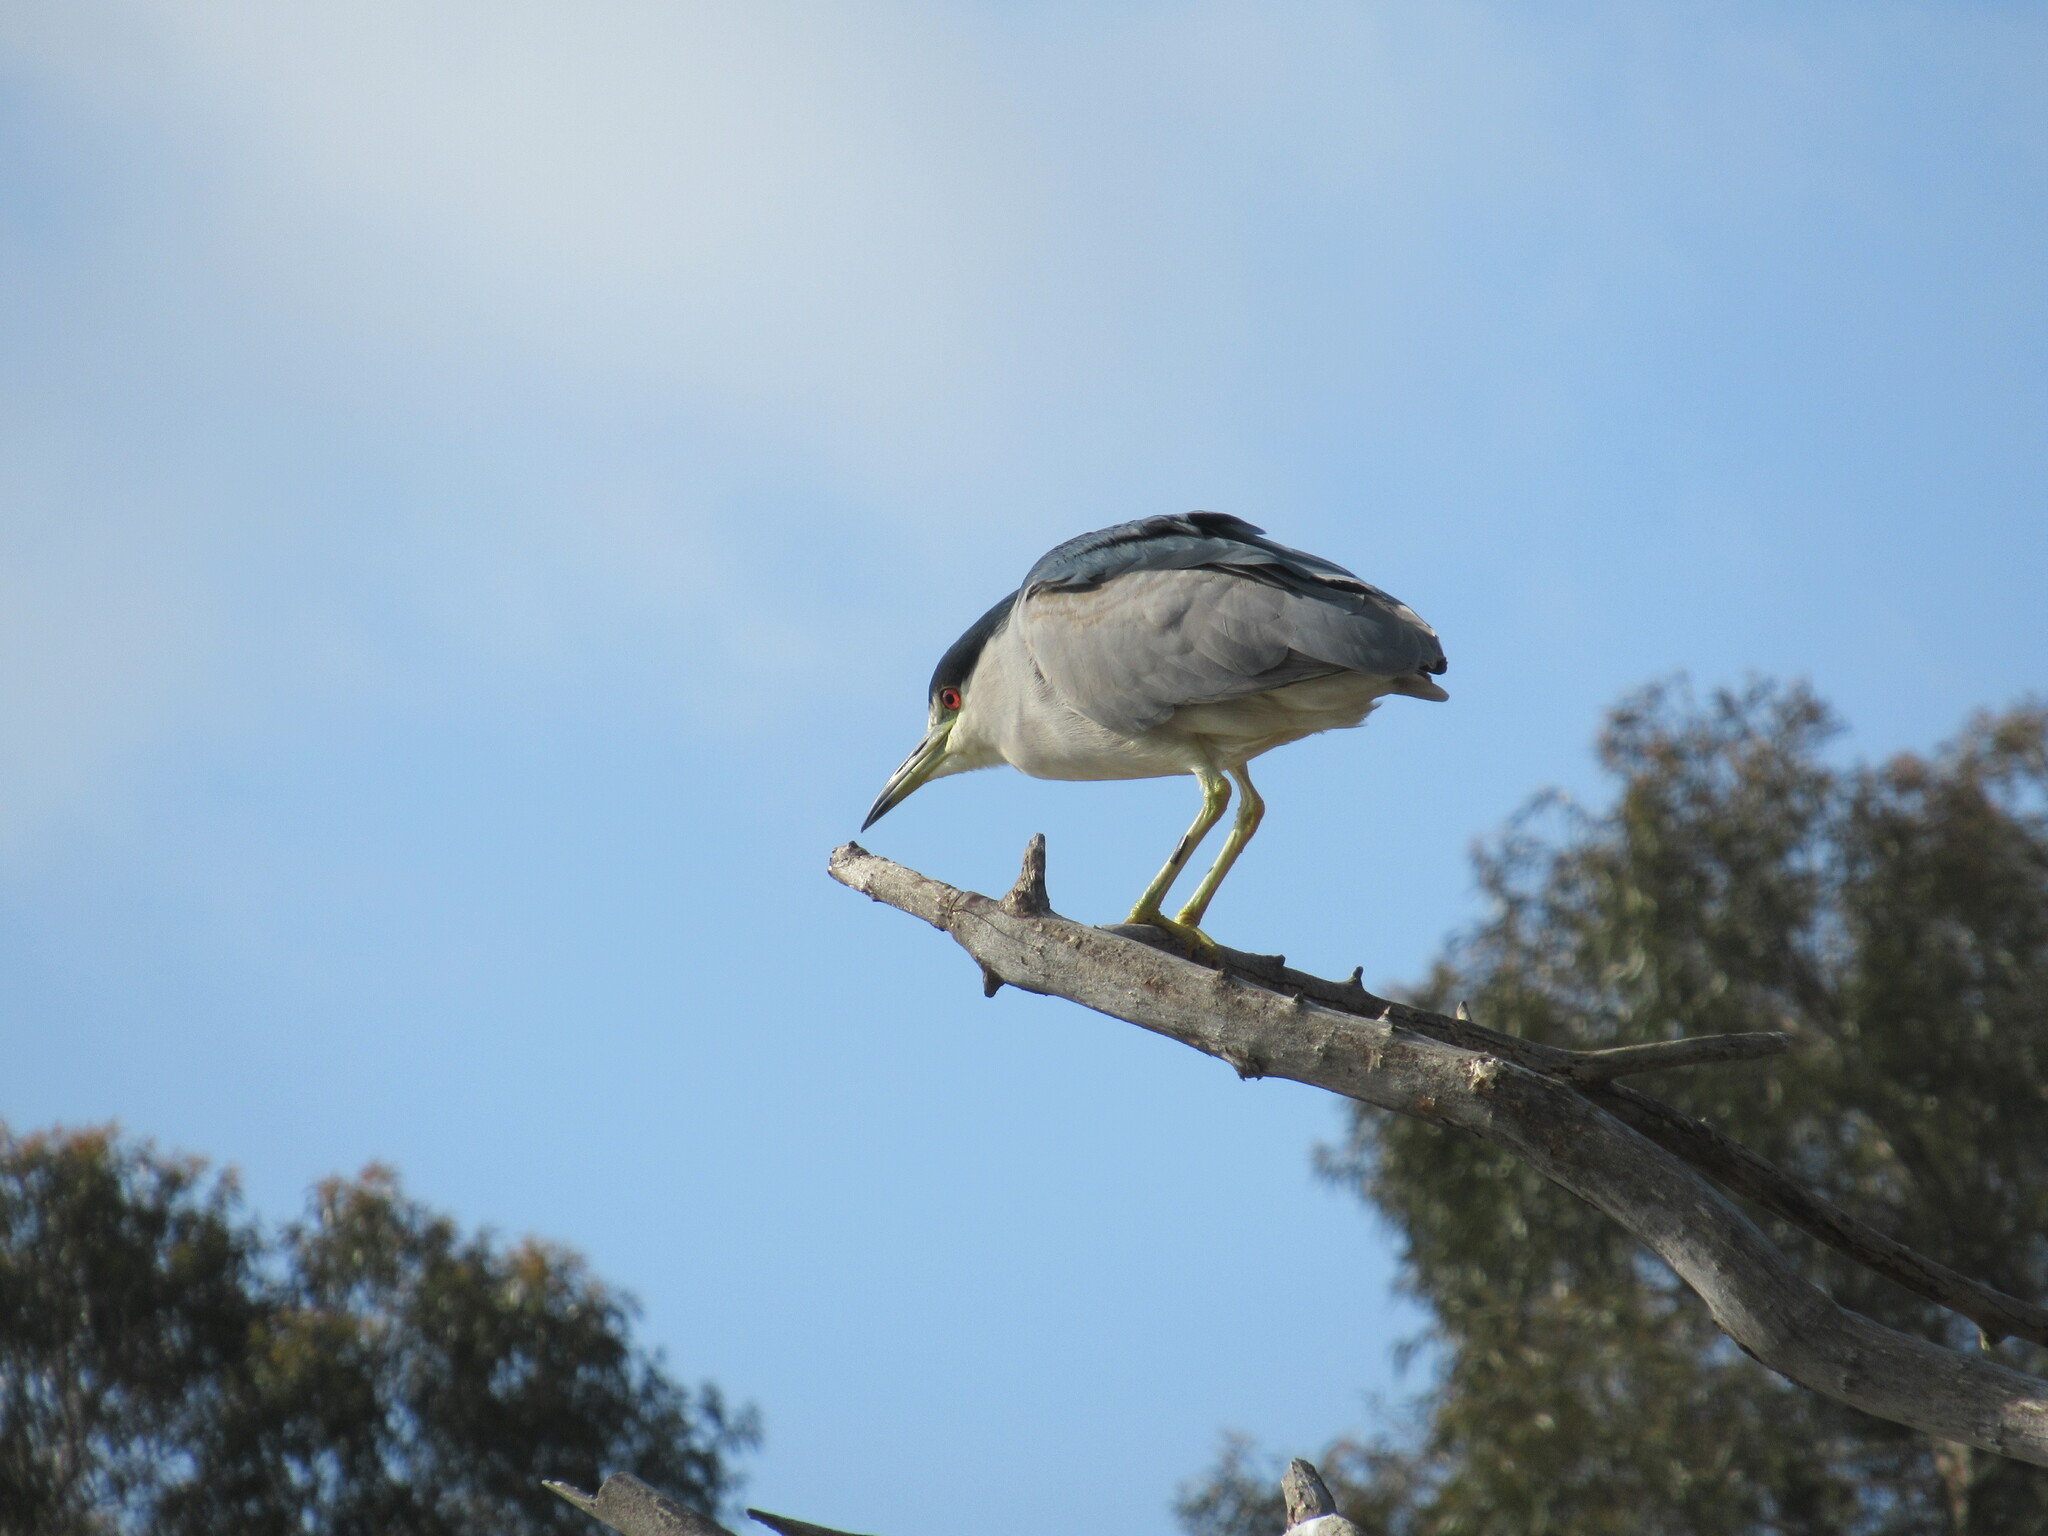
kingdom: Animalia
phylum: Chordata
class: Aves
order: Pelecaniformes
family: Ardeidae
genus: Nycticorax
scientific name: Nycticorax nycticorax
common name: Black-crowned night heron
